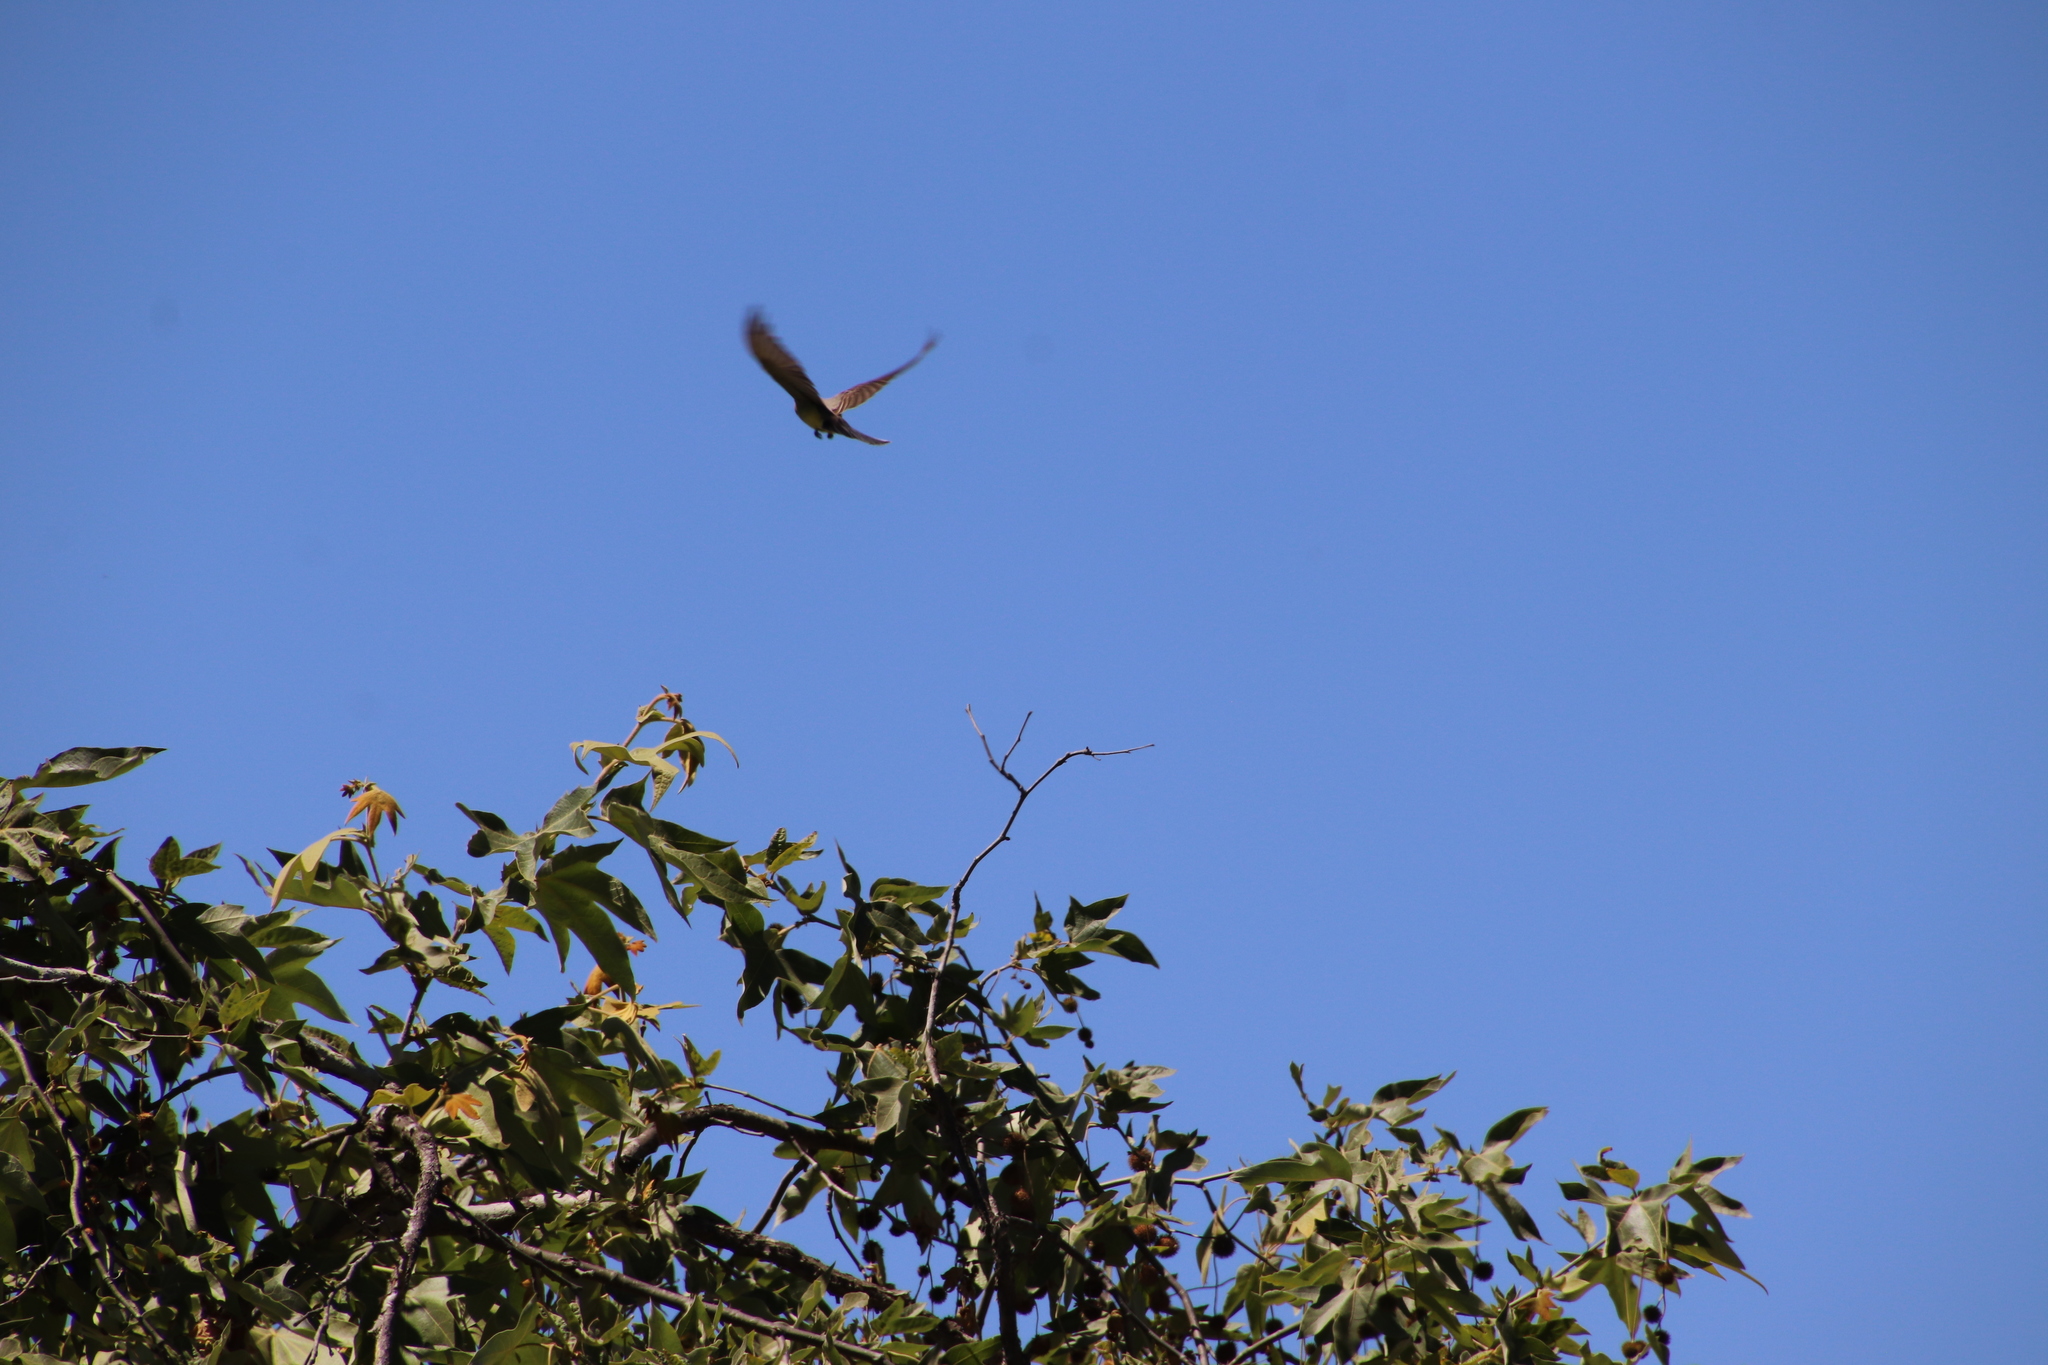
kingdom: Animalia
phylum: Chordata
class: Aves
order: Passeriformes
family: Tyrannidae
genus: Tyrannus
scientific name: Tyrannus verticalis
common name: Western kingbird
